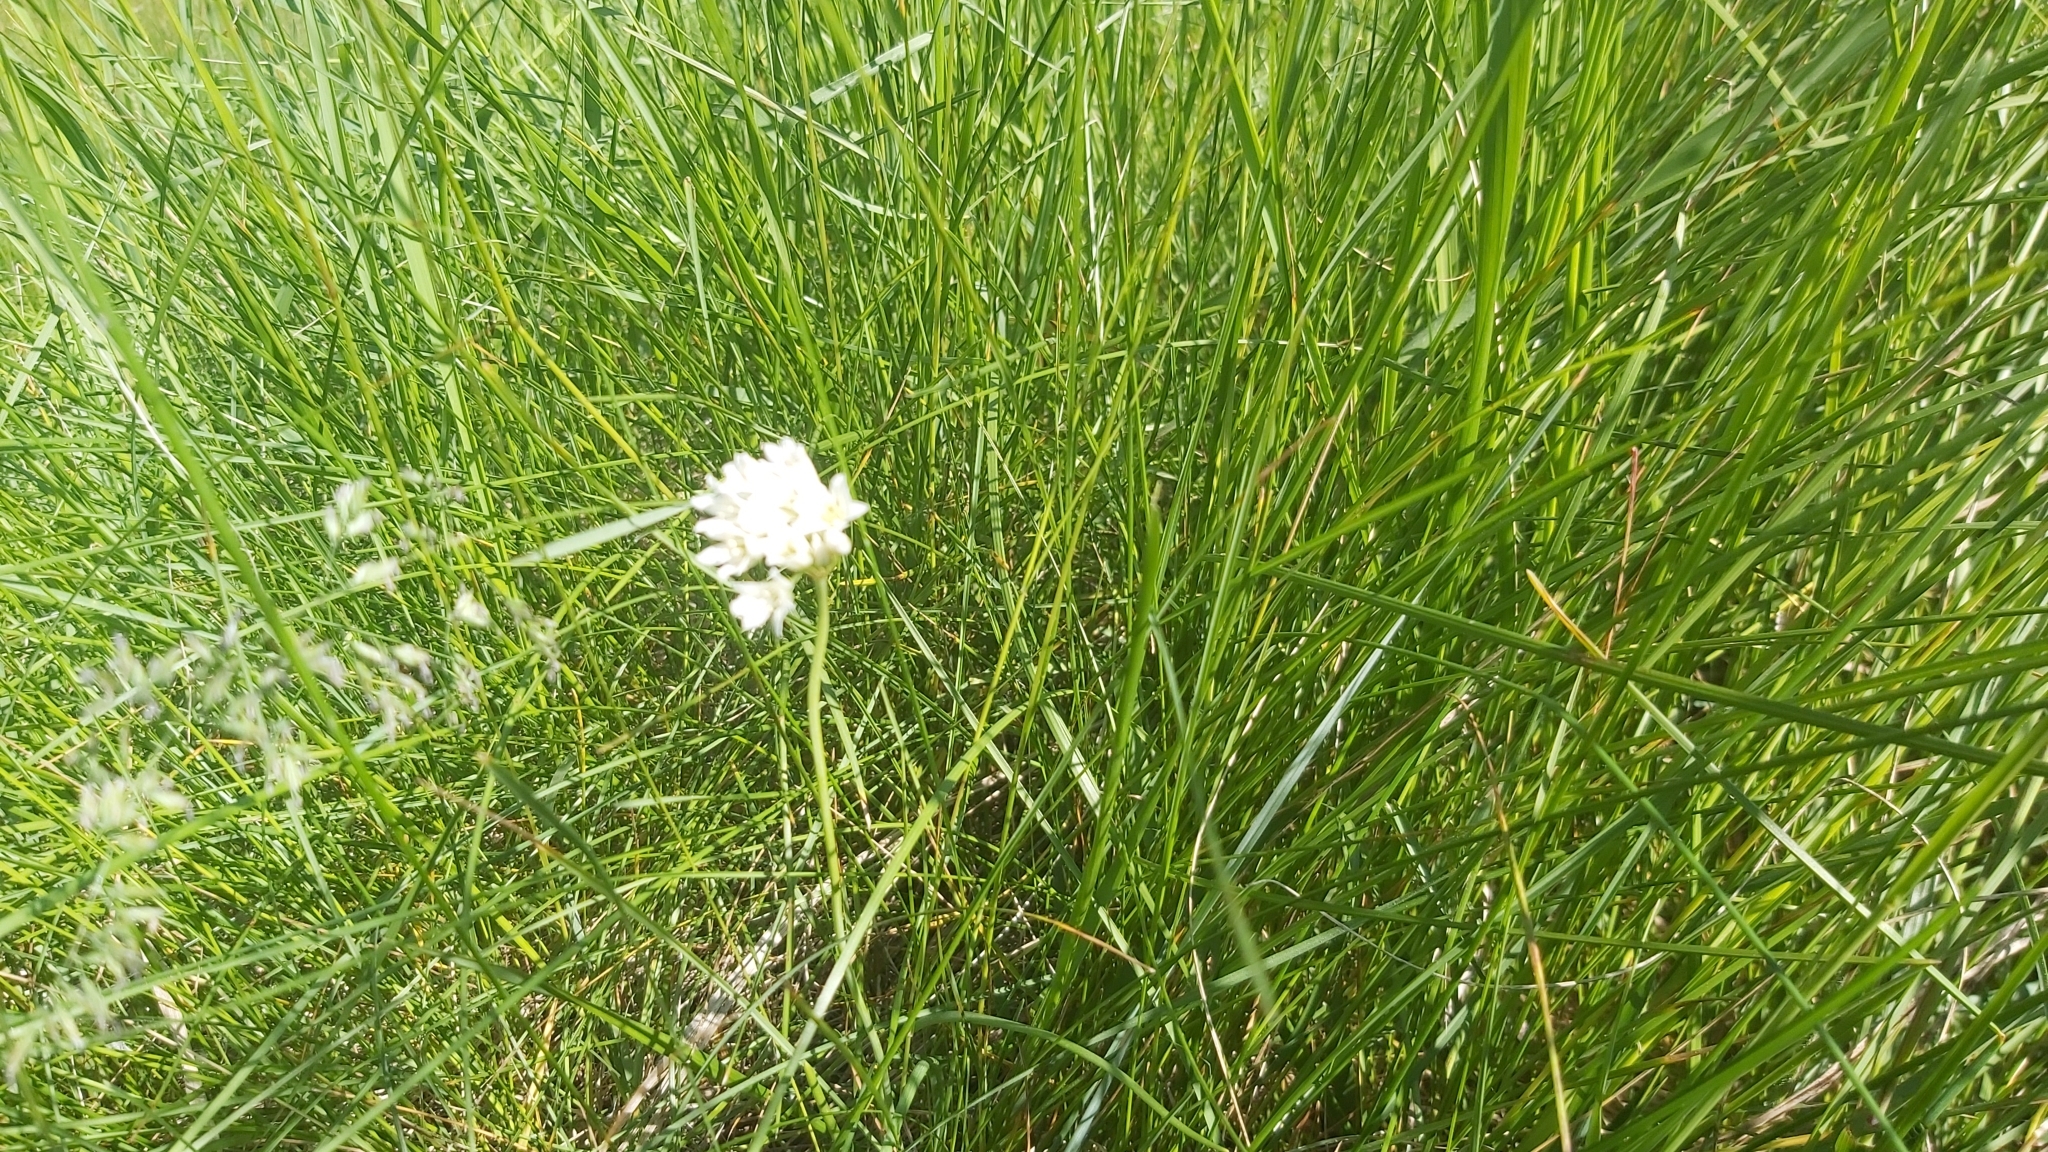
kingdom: Plantae
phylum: Tracheophyta
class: Liliopsida
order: Asparagales
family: Amaryllidaceae
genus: Allium
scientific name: Allium textile
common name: Prairie onion
